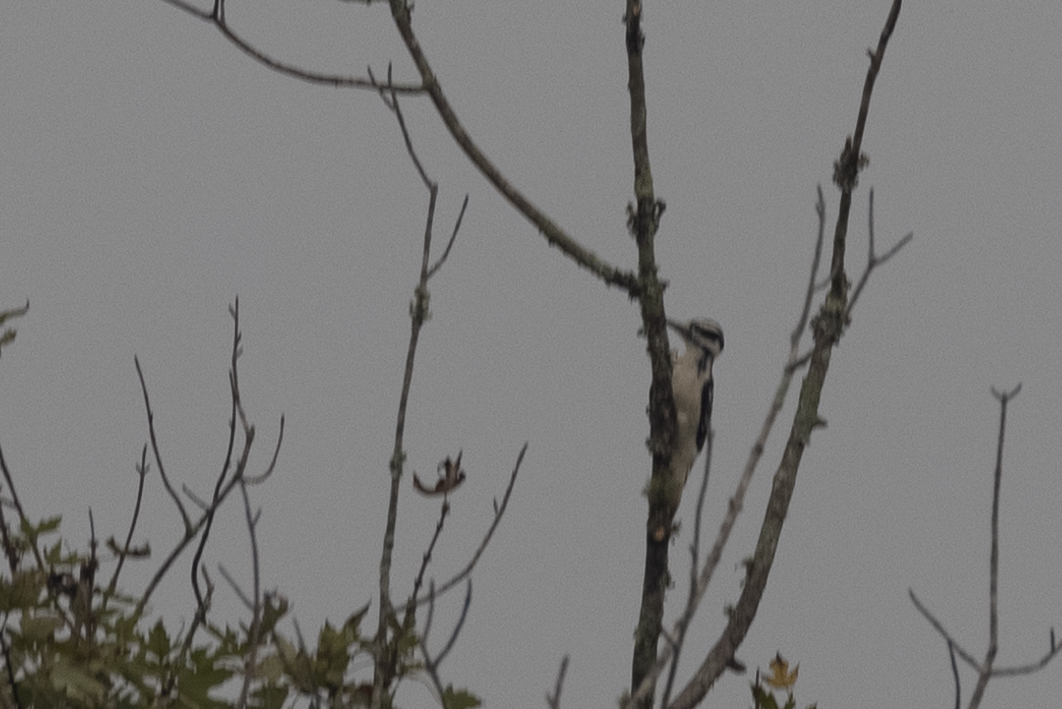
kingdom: Animalia
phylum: Chordata
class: Aves
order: Piciformes
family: Picidae
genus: Leuconotopicus
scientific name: Leuconotopicus villosus
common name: Hairy woodpecker
